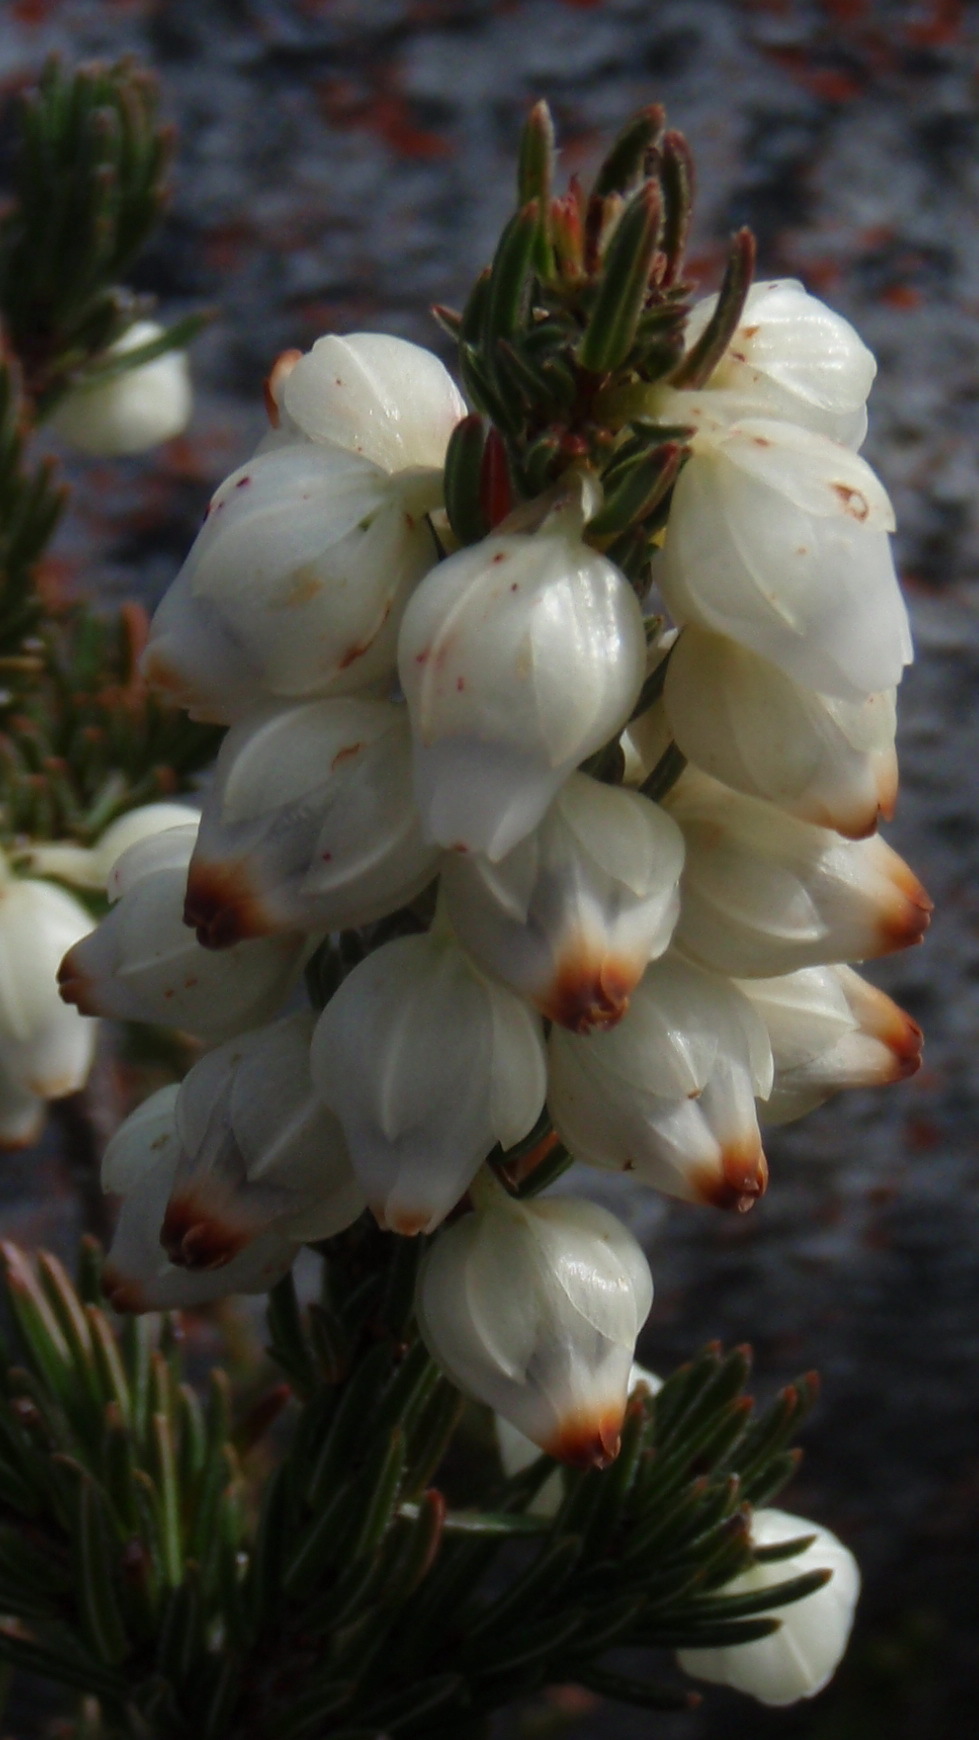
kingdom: Plantae
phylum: Tracheophyta
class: Magnoliopsida
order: Ericales
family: Ericaceae
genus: Erica
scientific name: Erica grisbrookii
